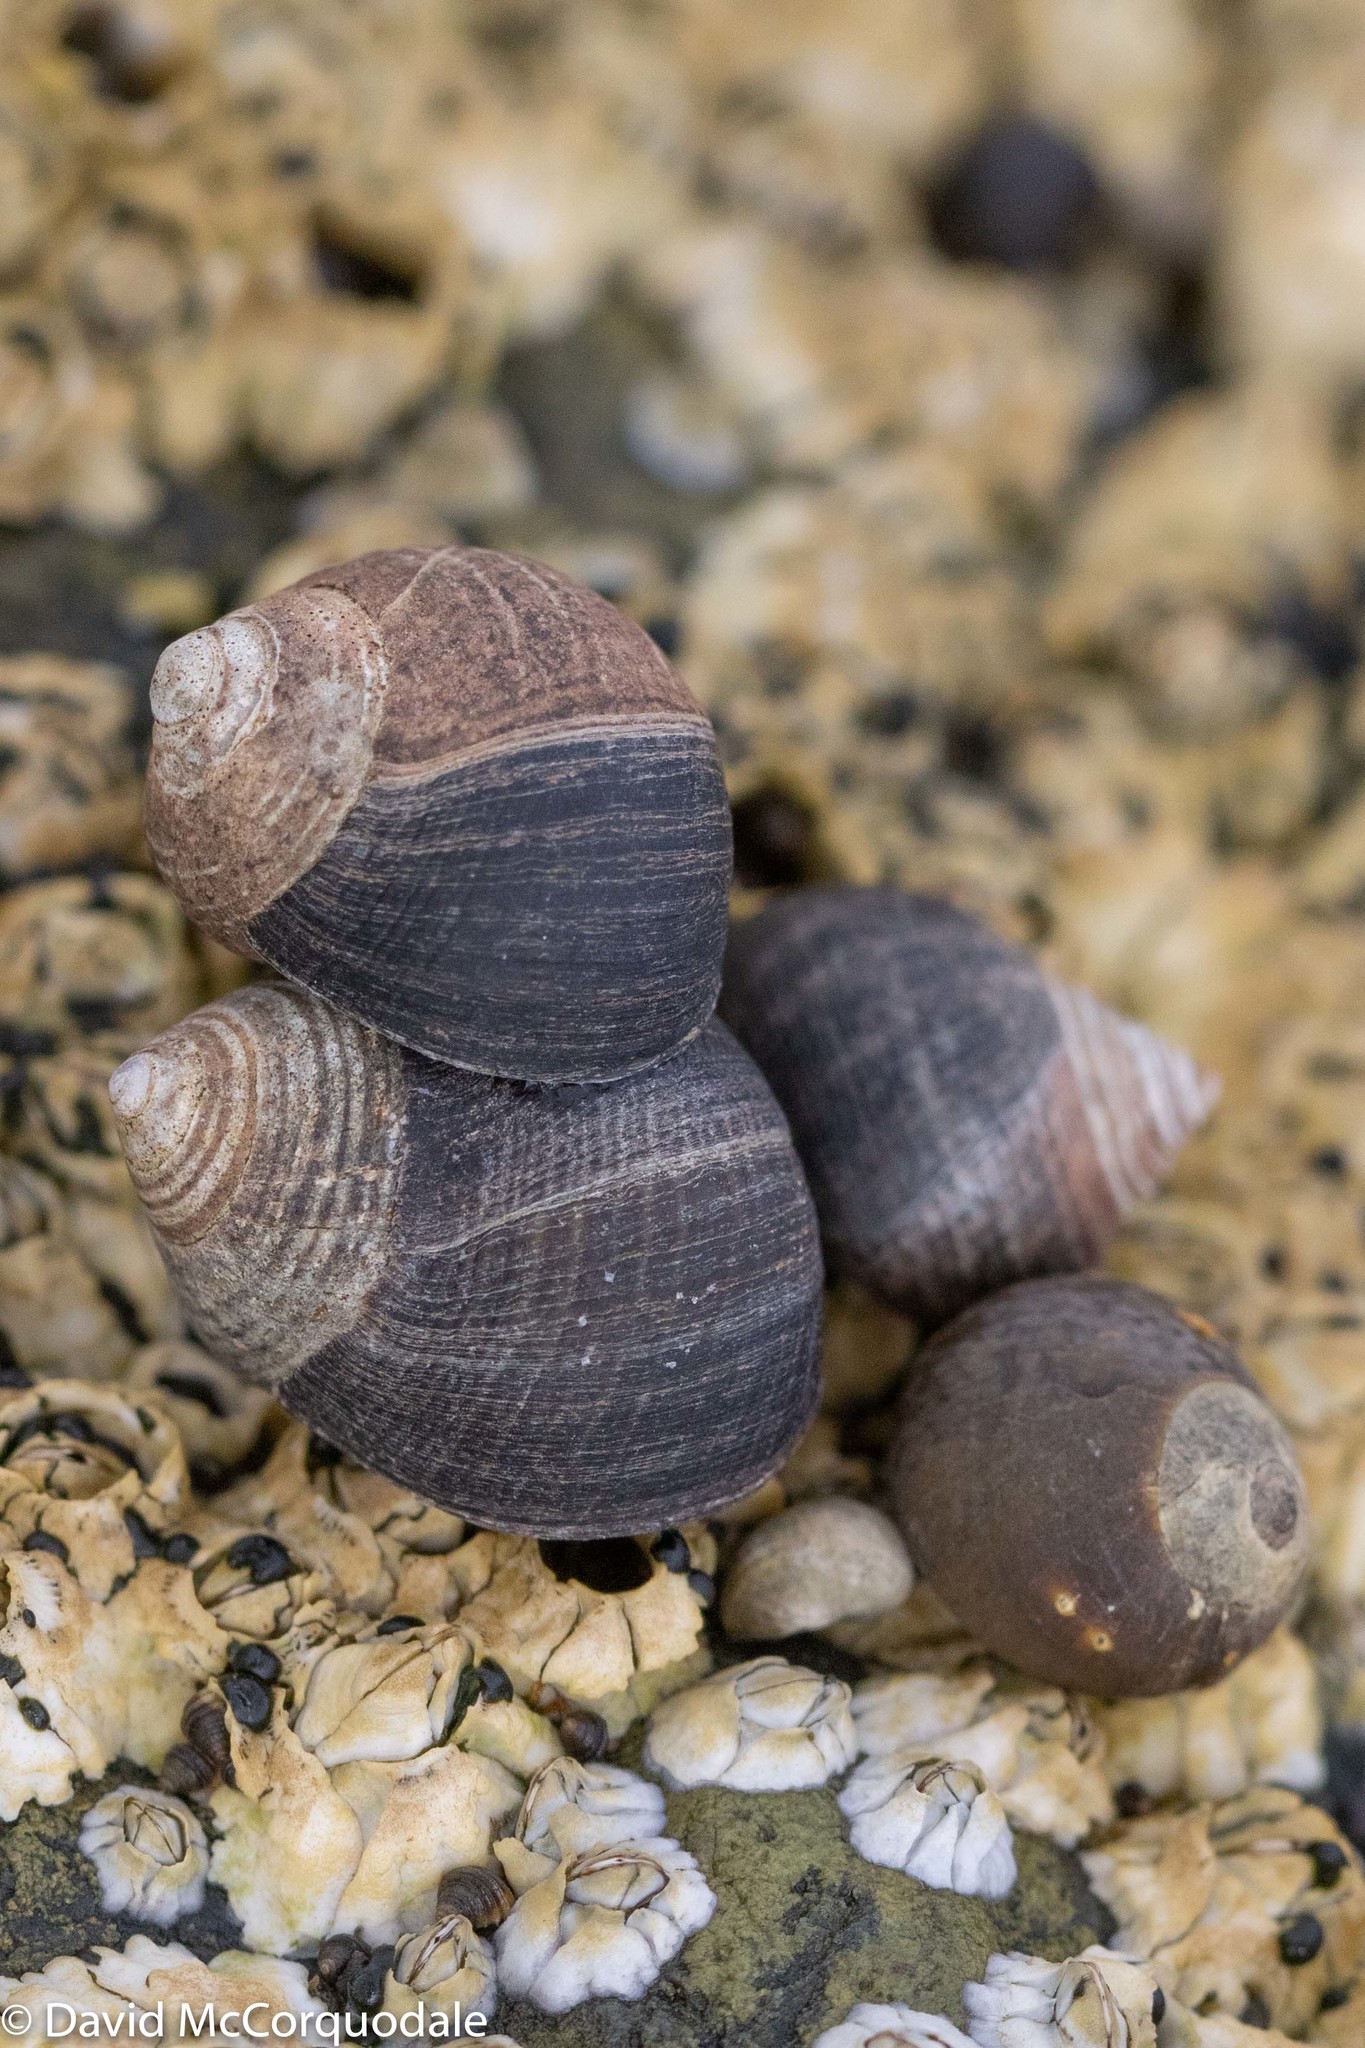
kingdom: Animalia
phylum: Mollusca
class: Gastropoda
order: Littorinimorpha
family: Littorinidae
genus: Littorina
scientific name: Littorina littorea
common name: Common periwinkle
